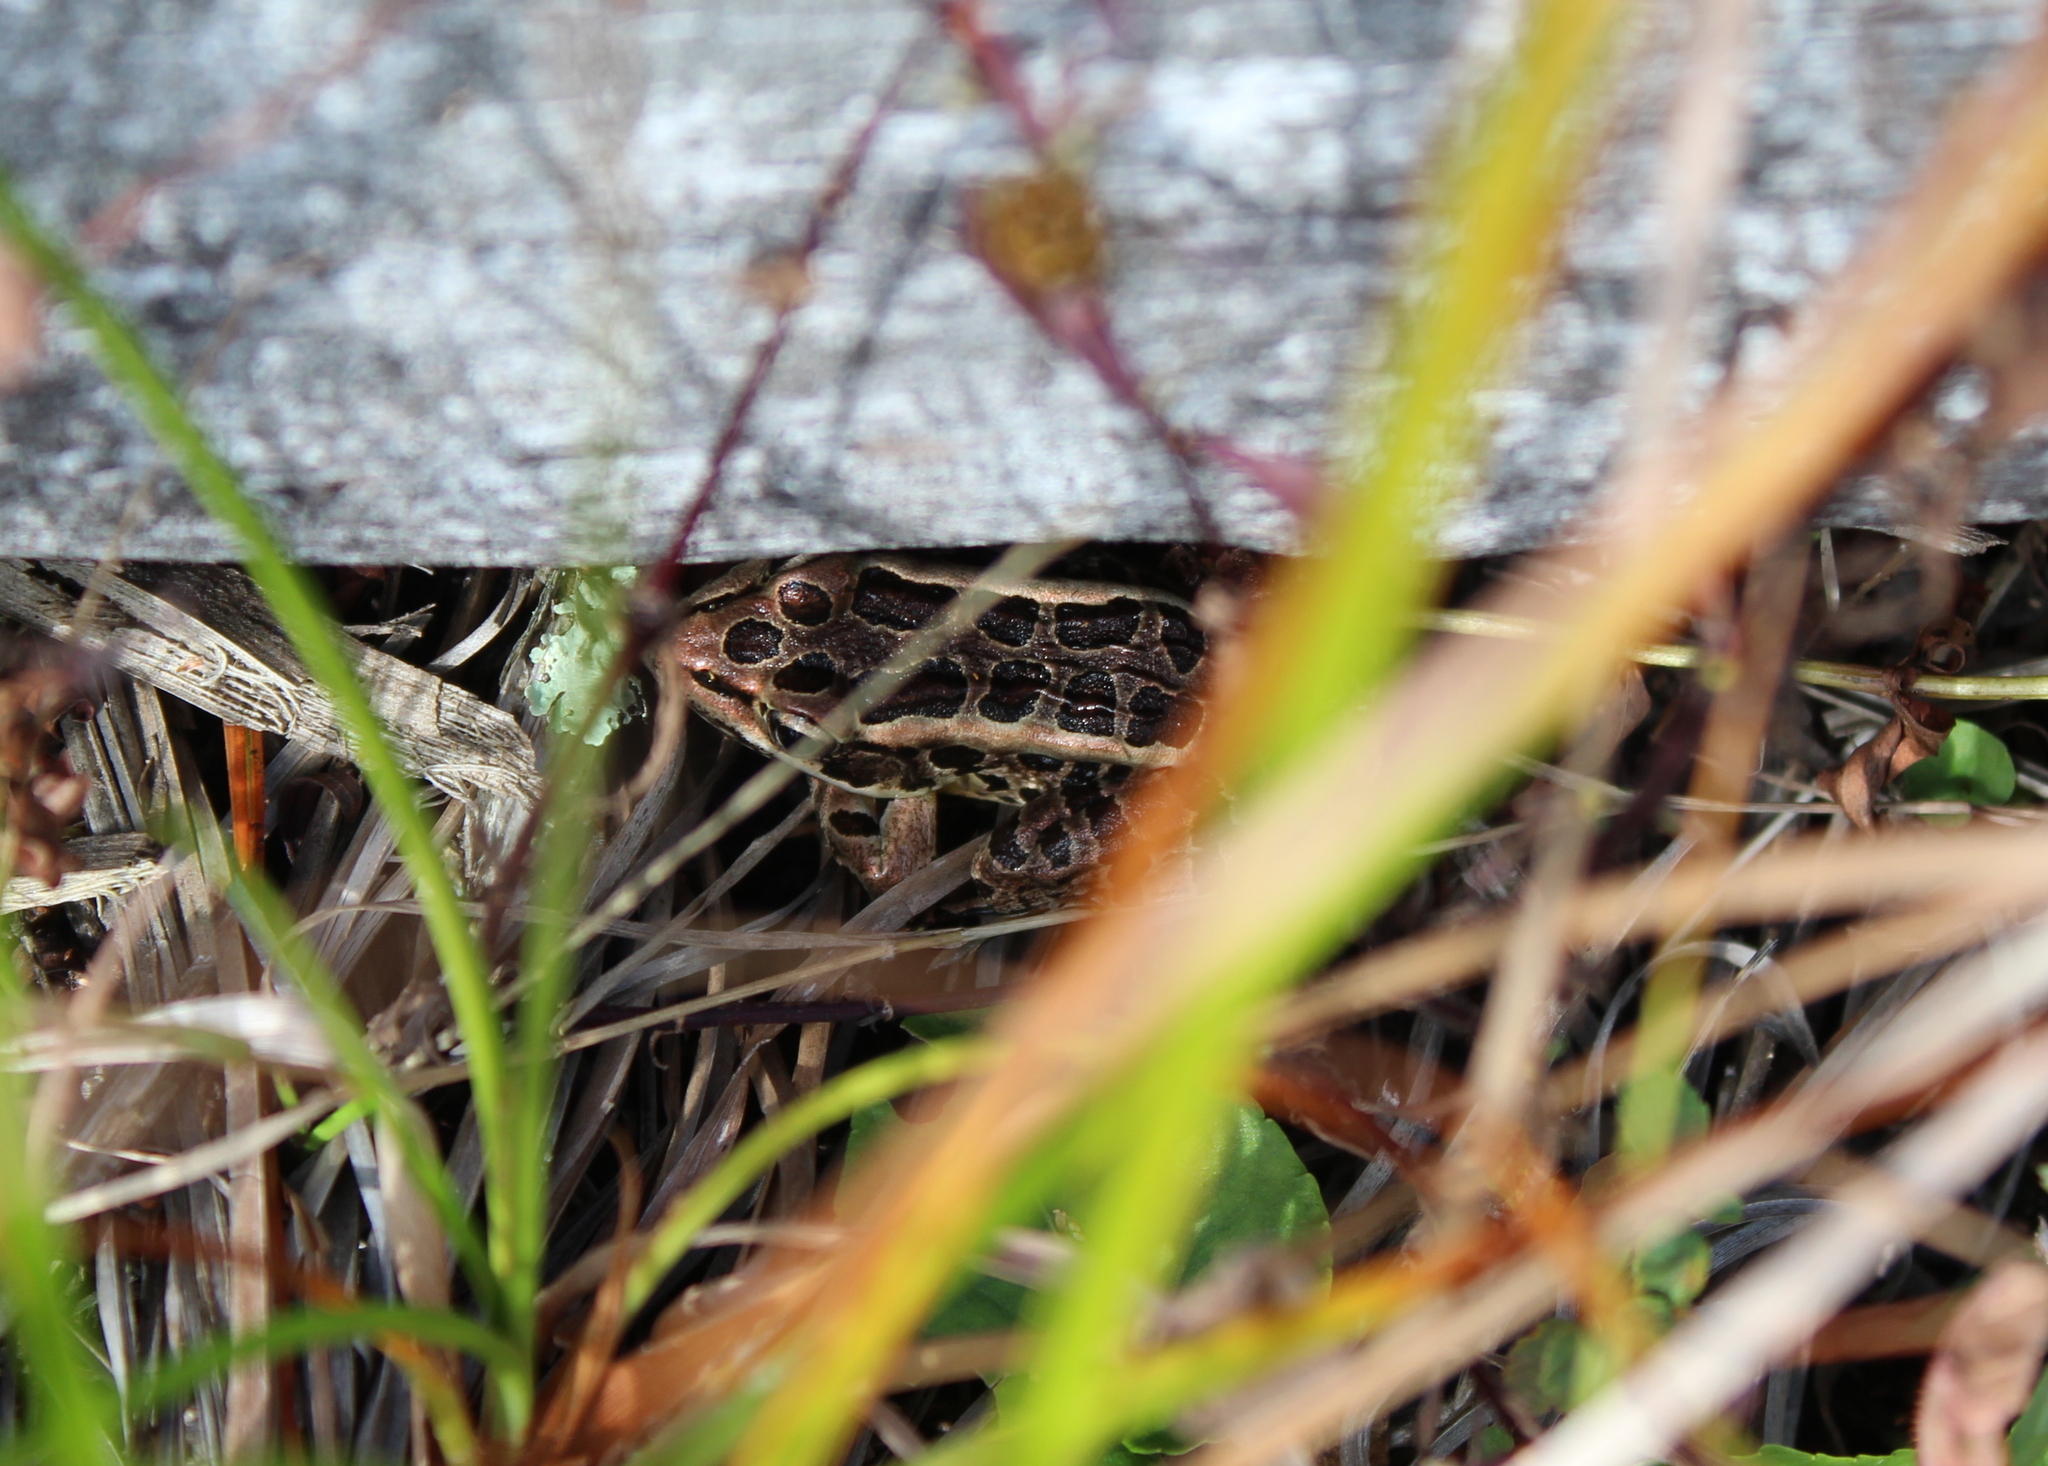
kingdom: Animalia
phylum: Chordata
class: Amphibia
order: Anura
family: Ranidae
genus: Lithobates
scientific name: Lithobates palustris
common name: Pickerel frog
